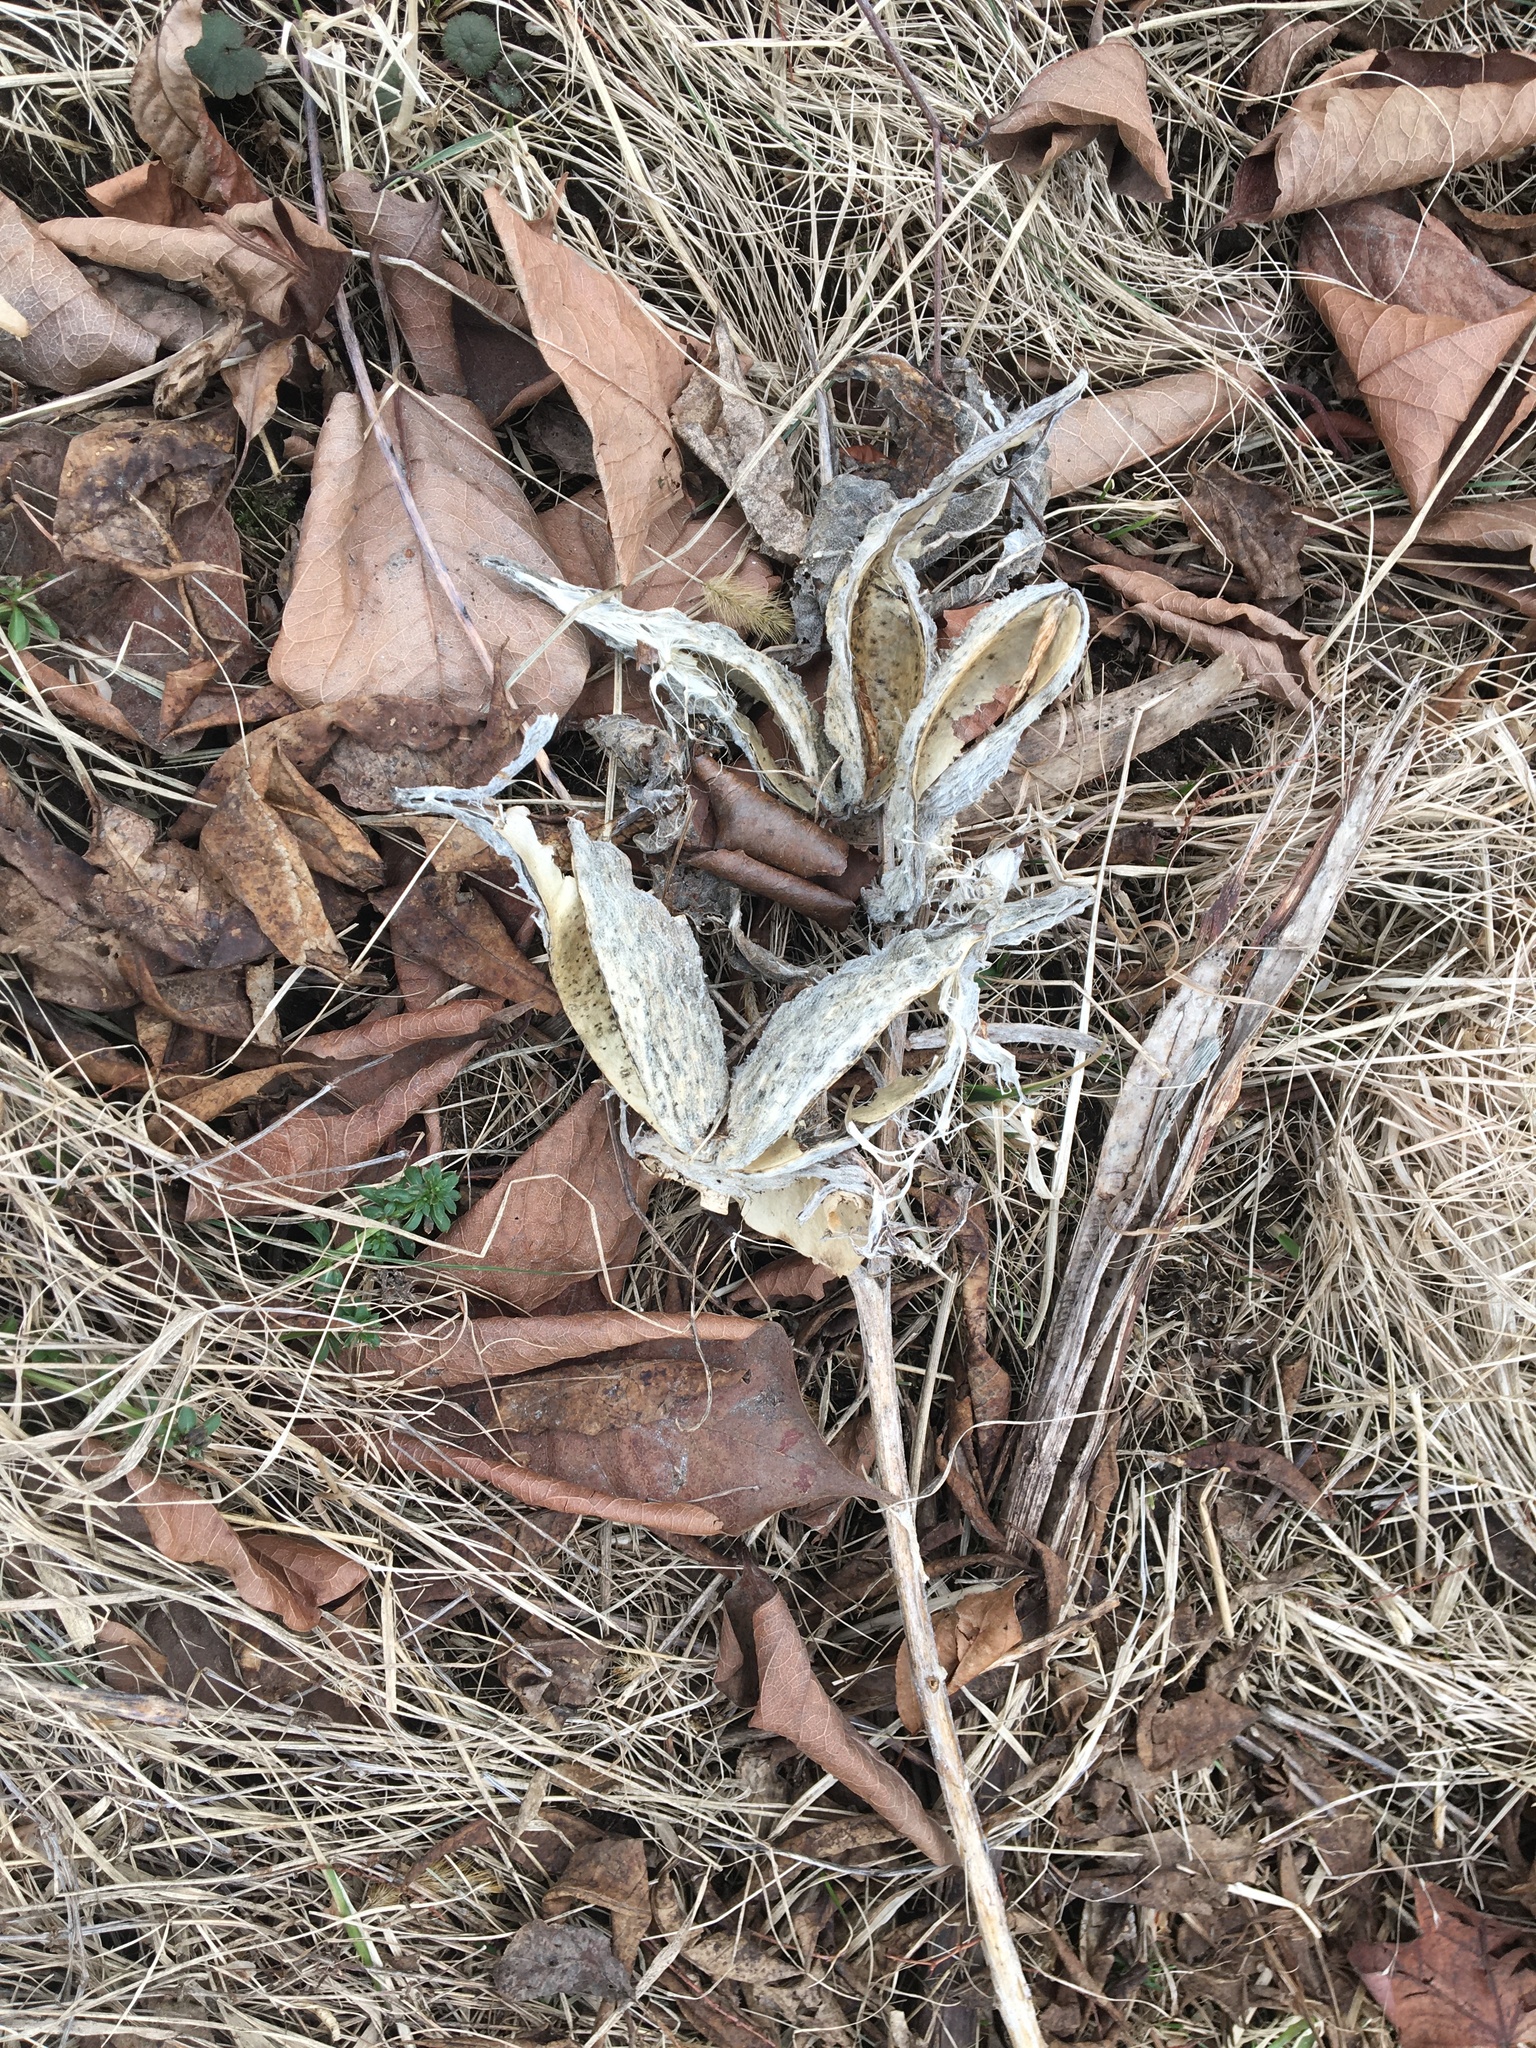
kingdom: Plantae
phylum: Tracheophyta
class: Magnoliopsida
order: Gentianales
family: Apocynaceae
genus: Asclepias
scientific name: Asclepias syriaca
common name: Common milkweed
